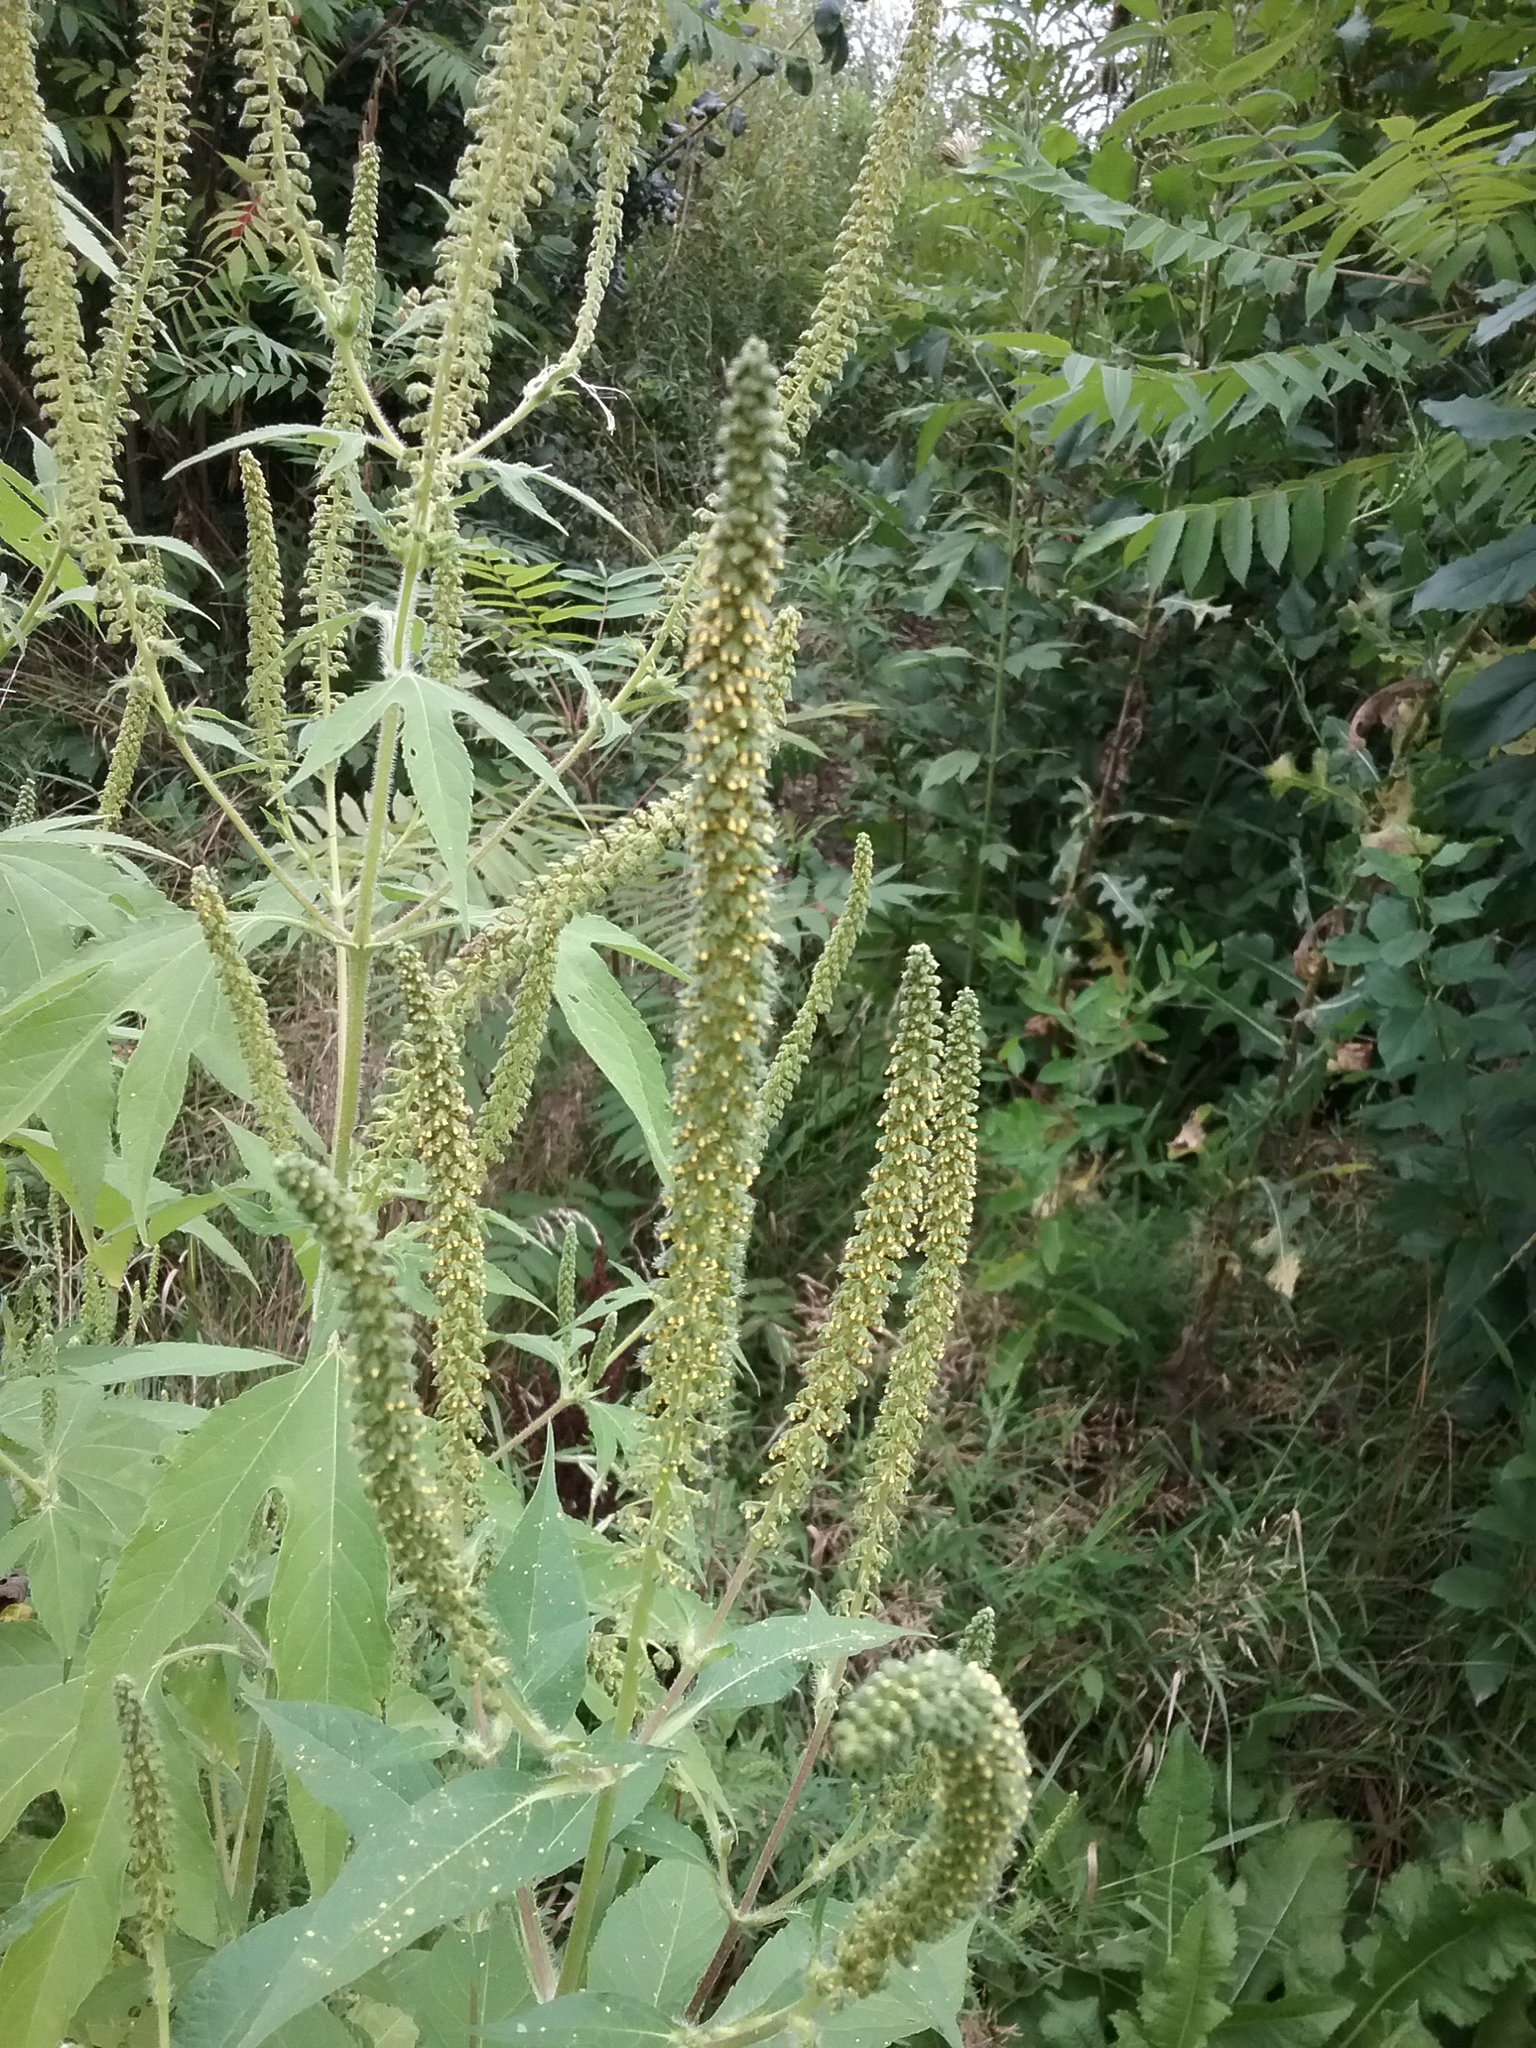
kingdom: Plantae
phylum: Tracheophyta
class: Magnoliopsida
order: Asterales
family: Asteraceae
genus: Ambrosia
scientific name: Ambrosia trifida
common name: Giant ragweed
